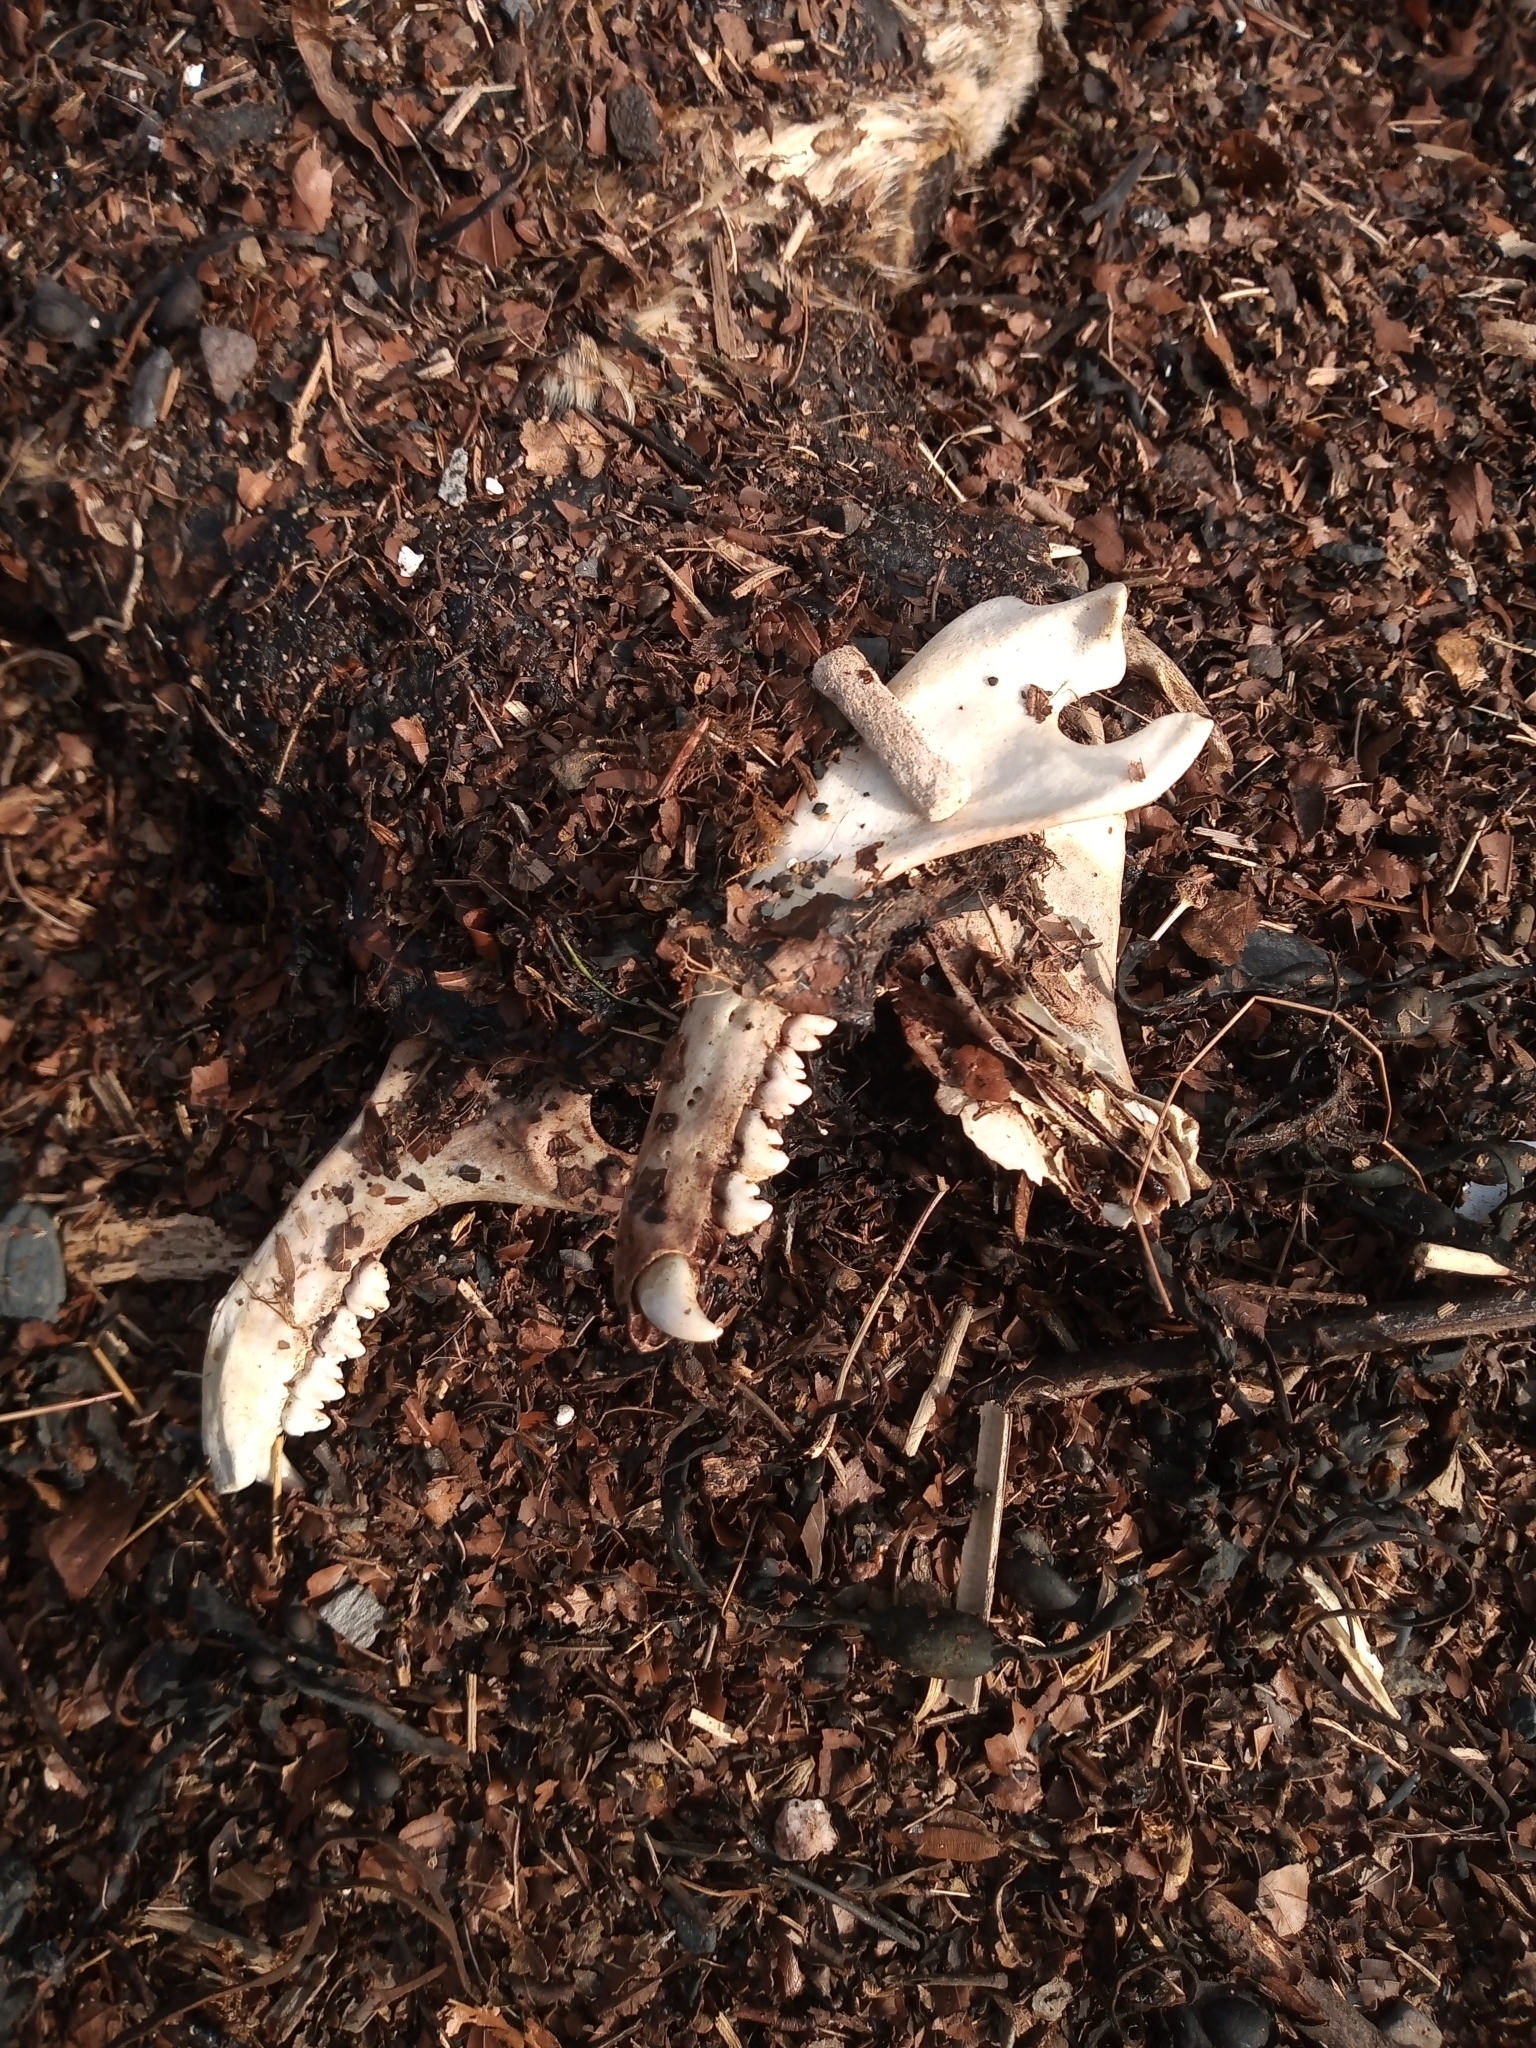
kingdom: Animalia
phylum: Chordata
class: Mammalia
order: Carnivora
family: Phocidae
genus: Phoca
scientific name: Phoca vitulina
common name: Harbor seal
